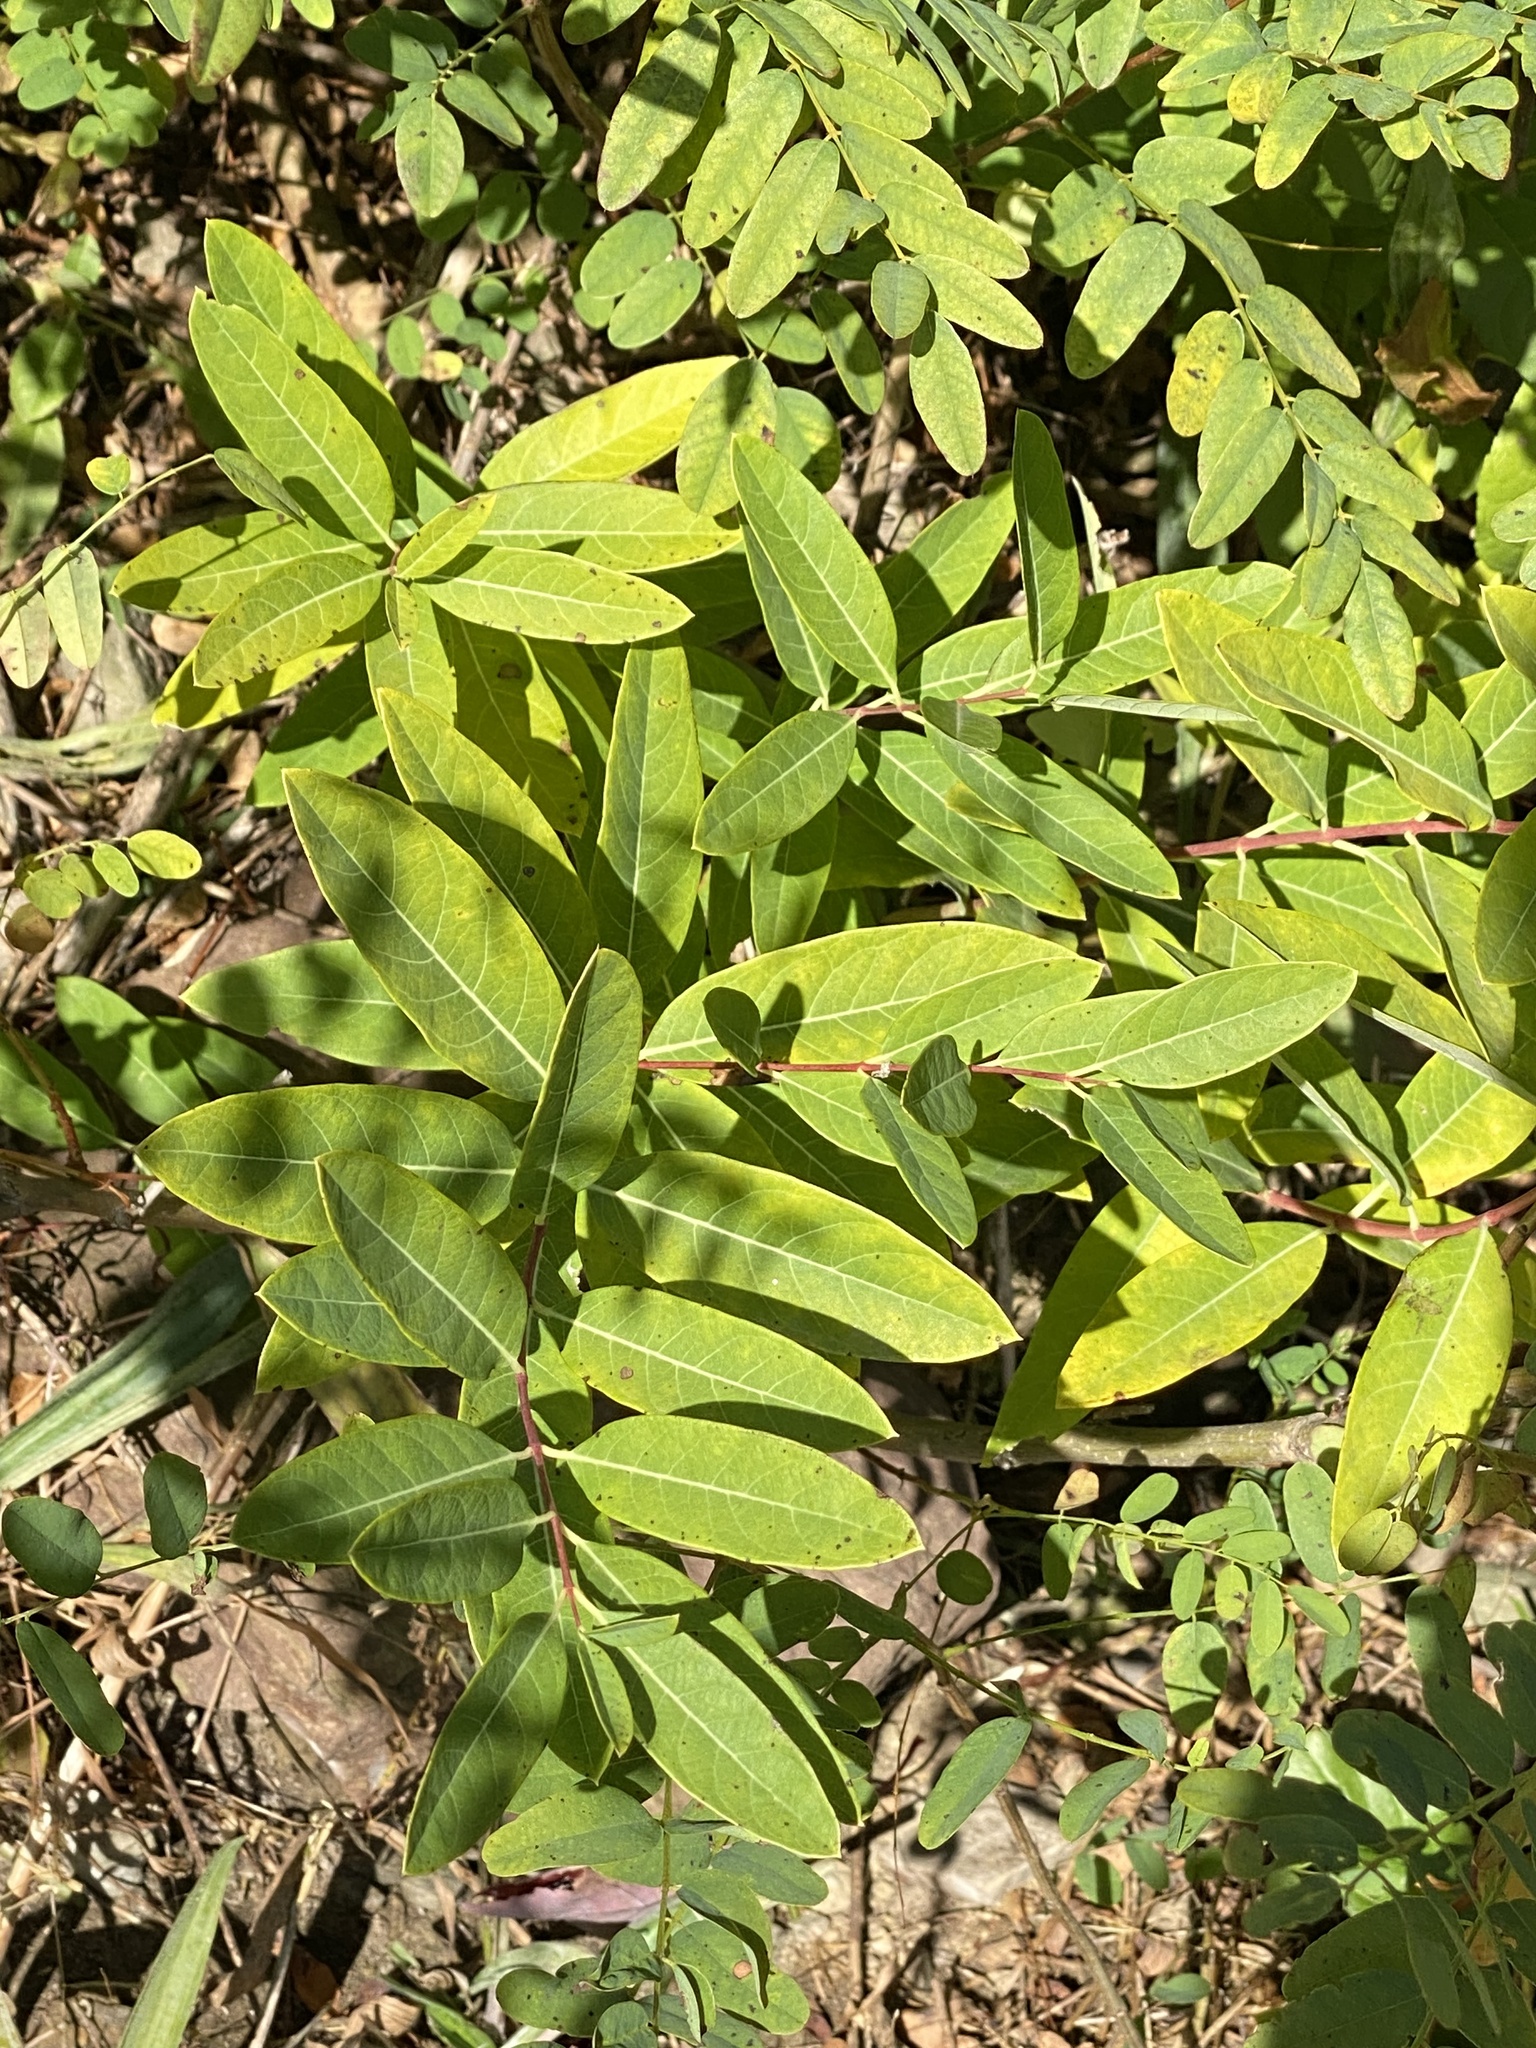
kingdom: Plantae
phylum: Tracheophyta
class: Magnoliopsida
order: Gentianales
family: Apocynaceae
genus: Apocynum
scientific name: Apocynum cannabinum
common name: Hemp dogbane
